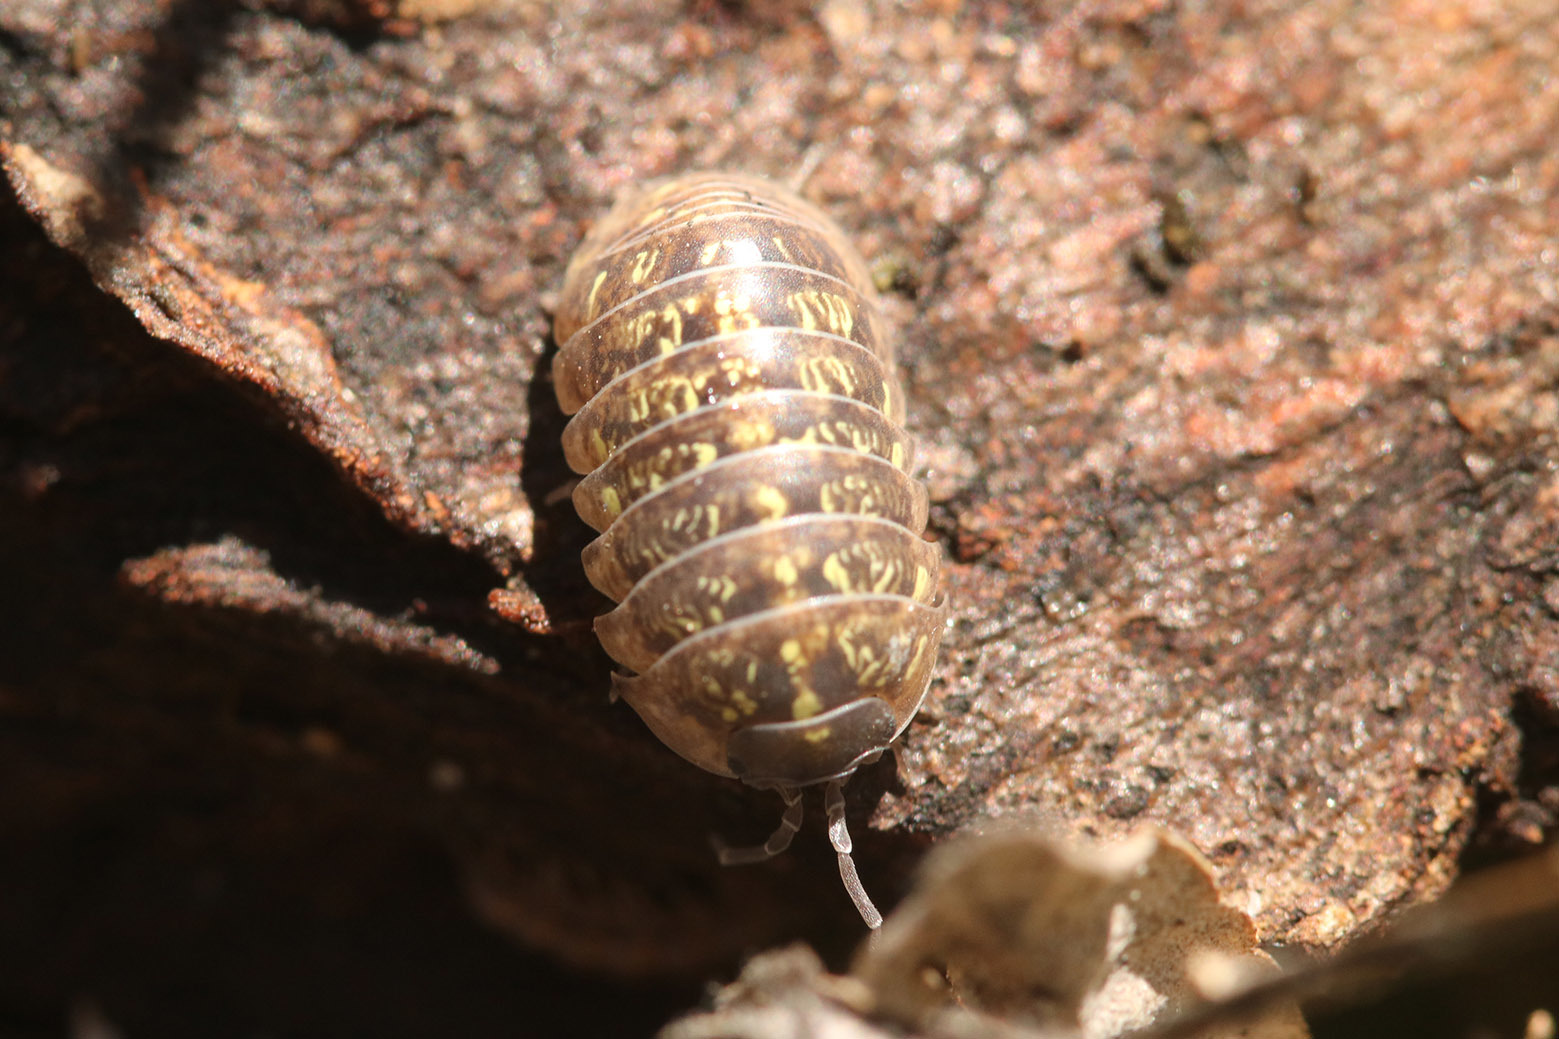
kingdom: Animalia
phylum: Arthropoda
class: Malacostraca
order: Isopoda
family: Armadillidiidae
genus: Armadillidium
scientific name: Armadillidium vulgare
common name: Common pill woodlouse
